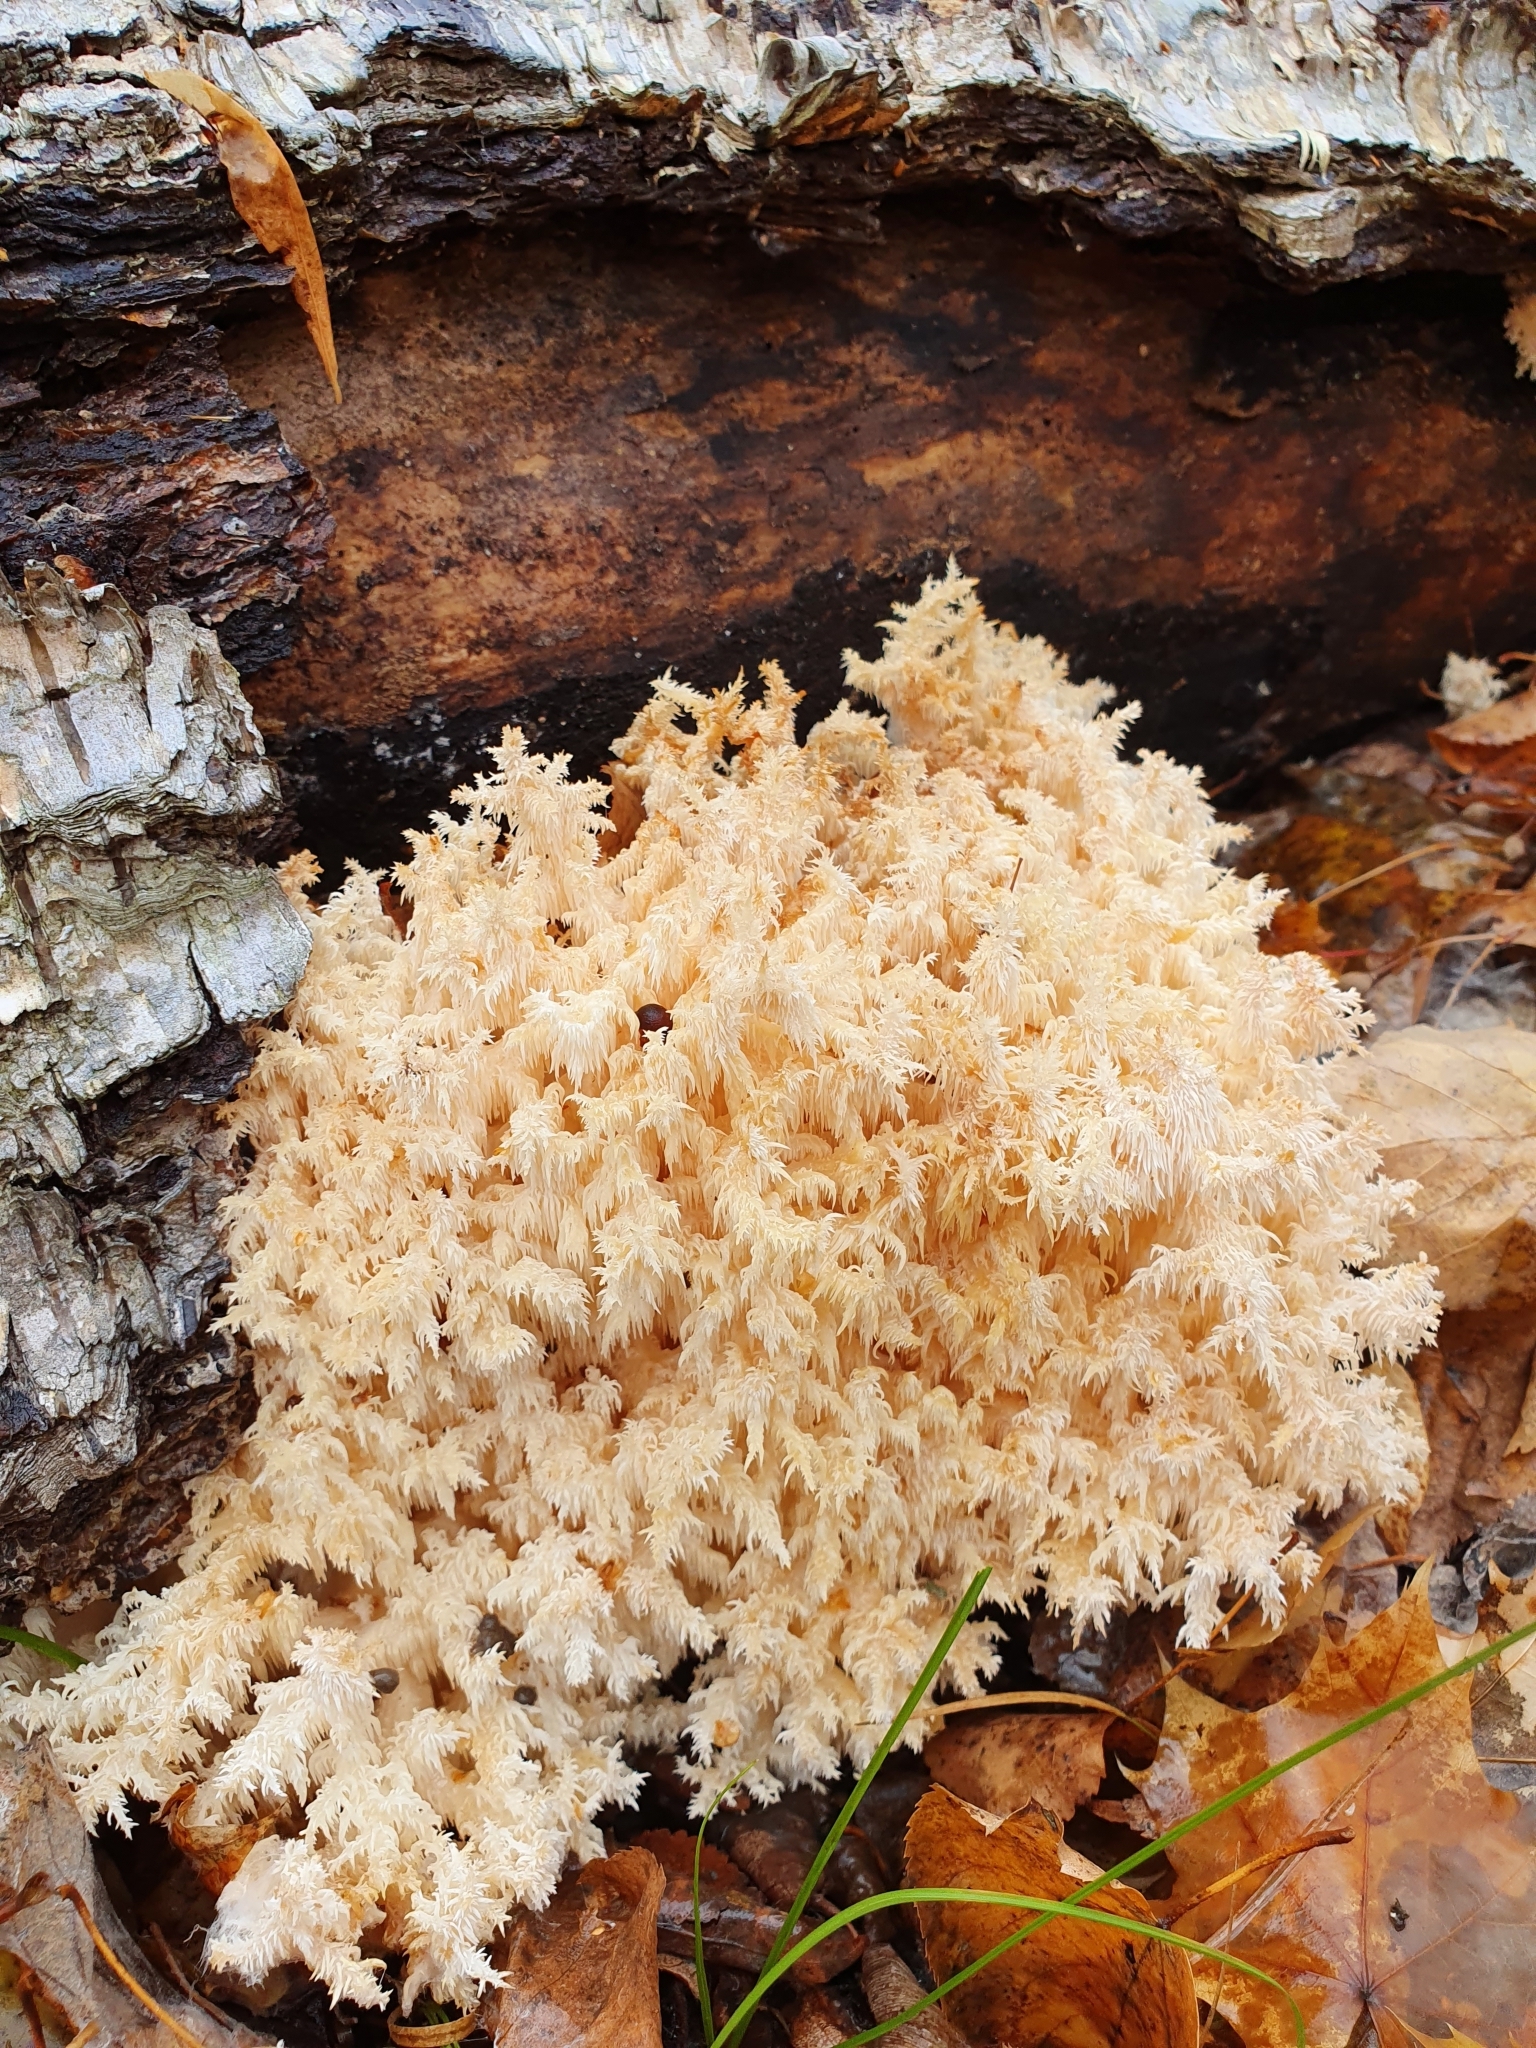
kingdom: Fungi
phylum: Basidiomycota
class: Agaricomycetes
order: Russulales
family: Hericiaceae
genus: Hericium
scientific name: Hericium coralloides
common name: Coral tooth
